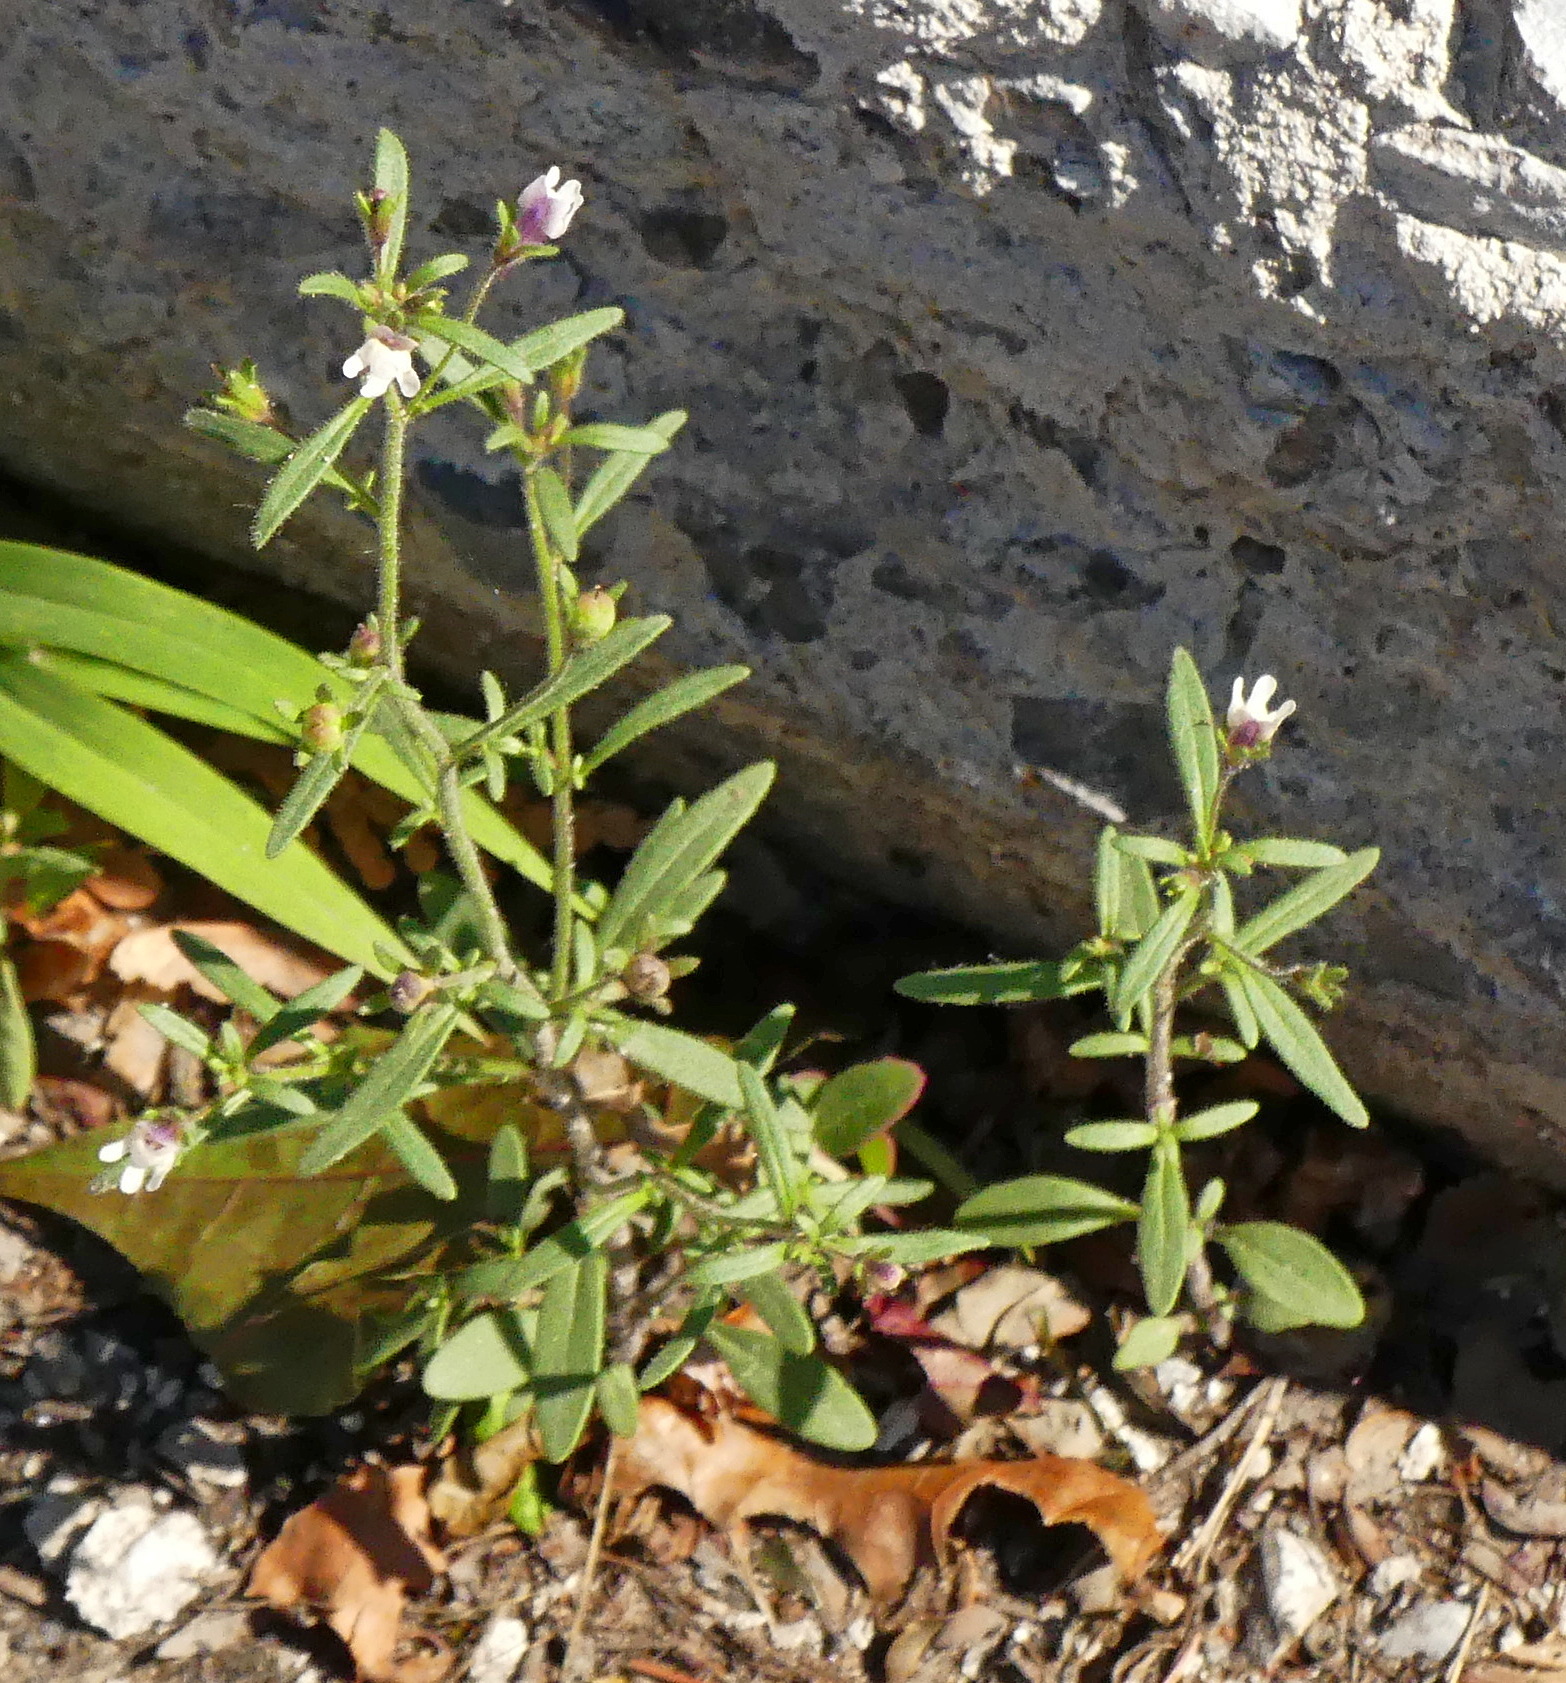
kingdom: Plantae
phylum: Tracheophyta
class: Magnoliopsida
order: Lamiales
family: Plantaginaceae
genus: Chaenorhinum
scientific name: Chaenorhinum minus
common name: Dwarf snapdragon
